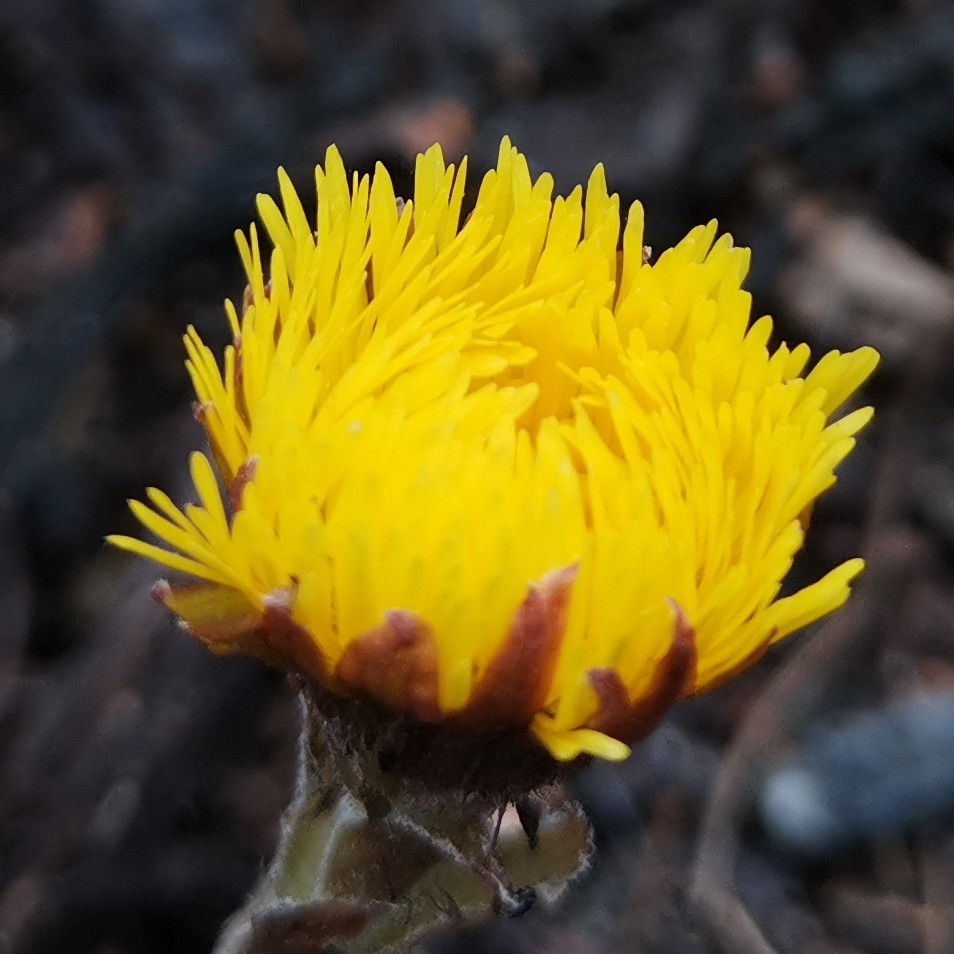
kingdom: Plantae
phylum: Tracheophyta
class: Magnoliopsida
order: Asterales
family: Asteraceae
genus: Tussilago
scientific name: Tussilago farfara
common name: Coltsfoot
